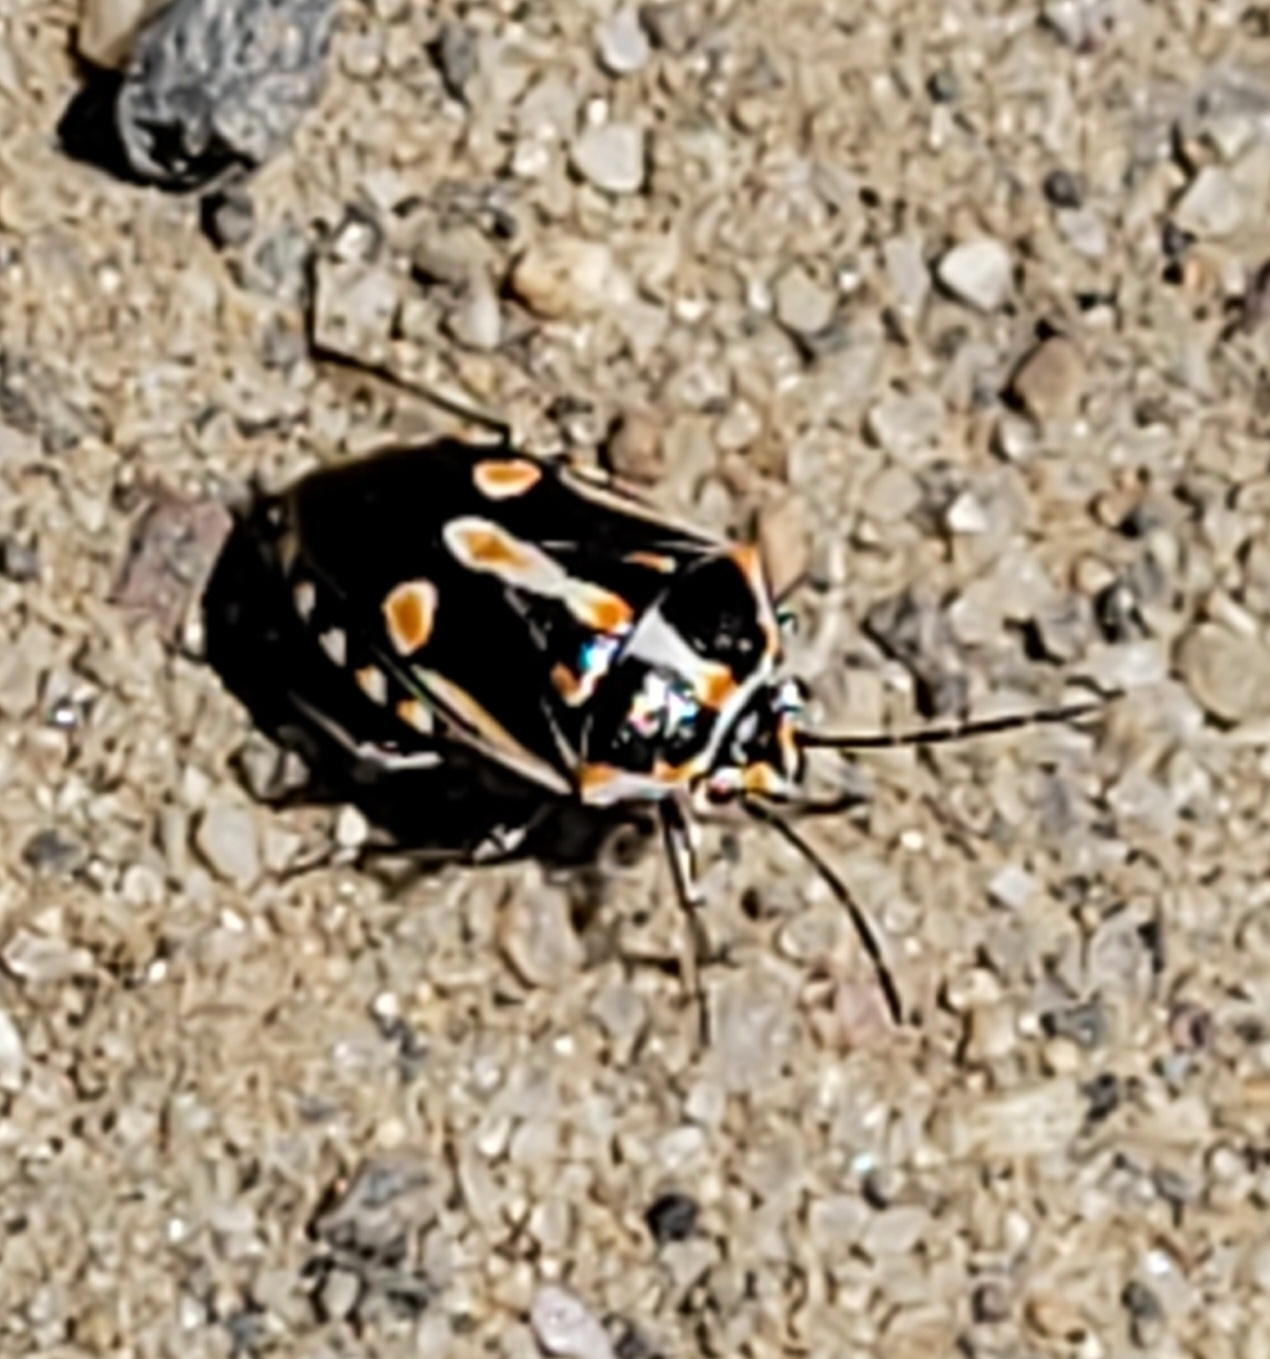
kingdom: Animalia
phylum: Arthropoda
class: Insecta
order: Hemiptera
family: Pentatomidae
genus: Bagrada
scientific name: Bagrada hilaris
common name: Bagrada bug
